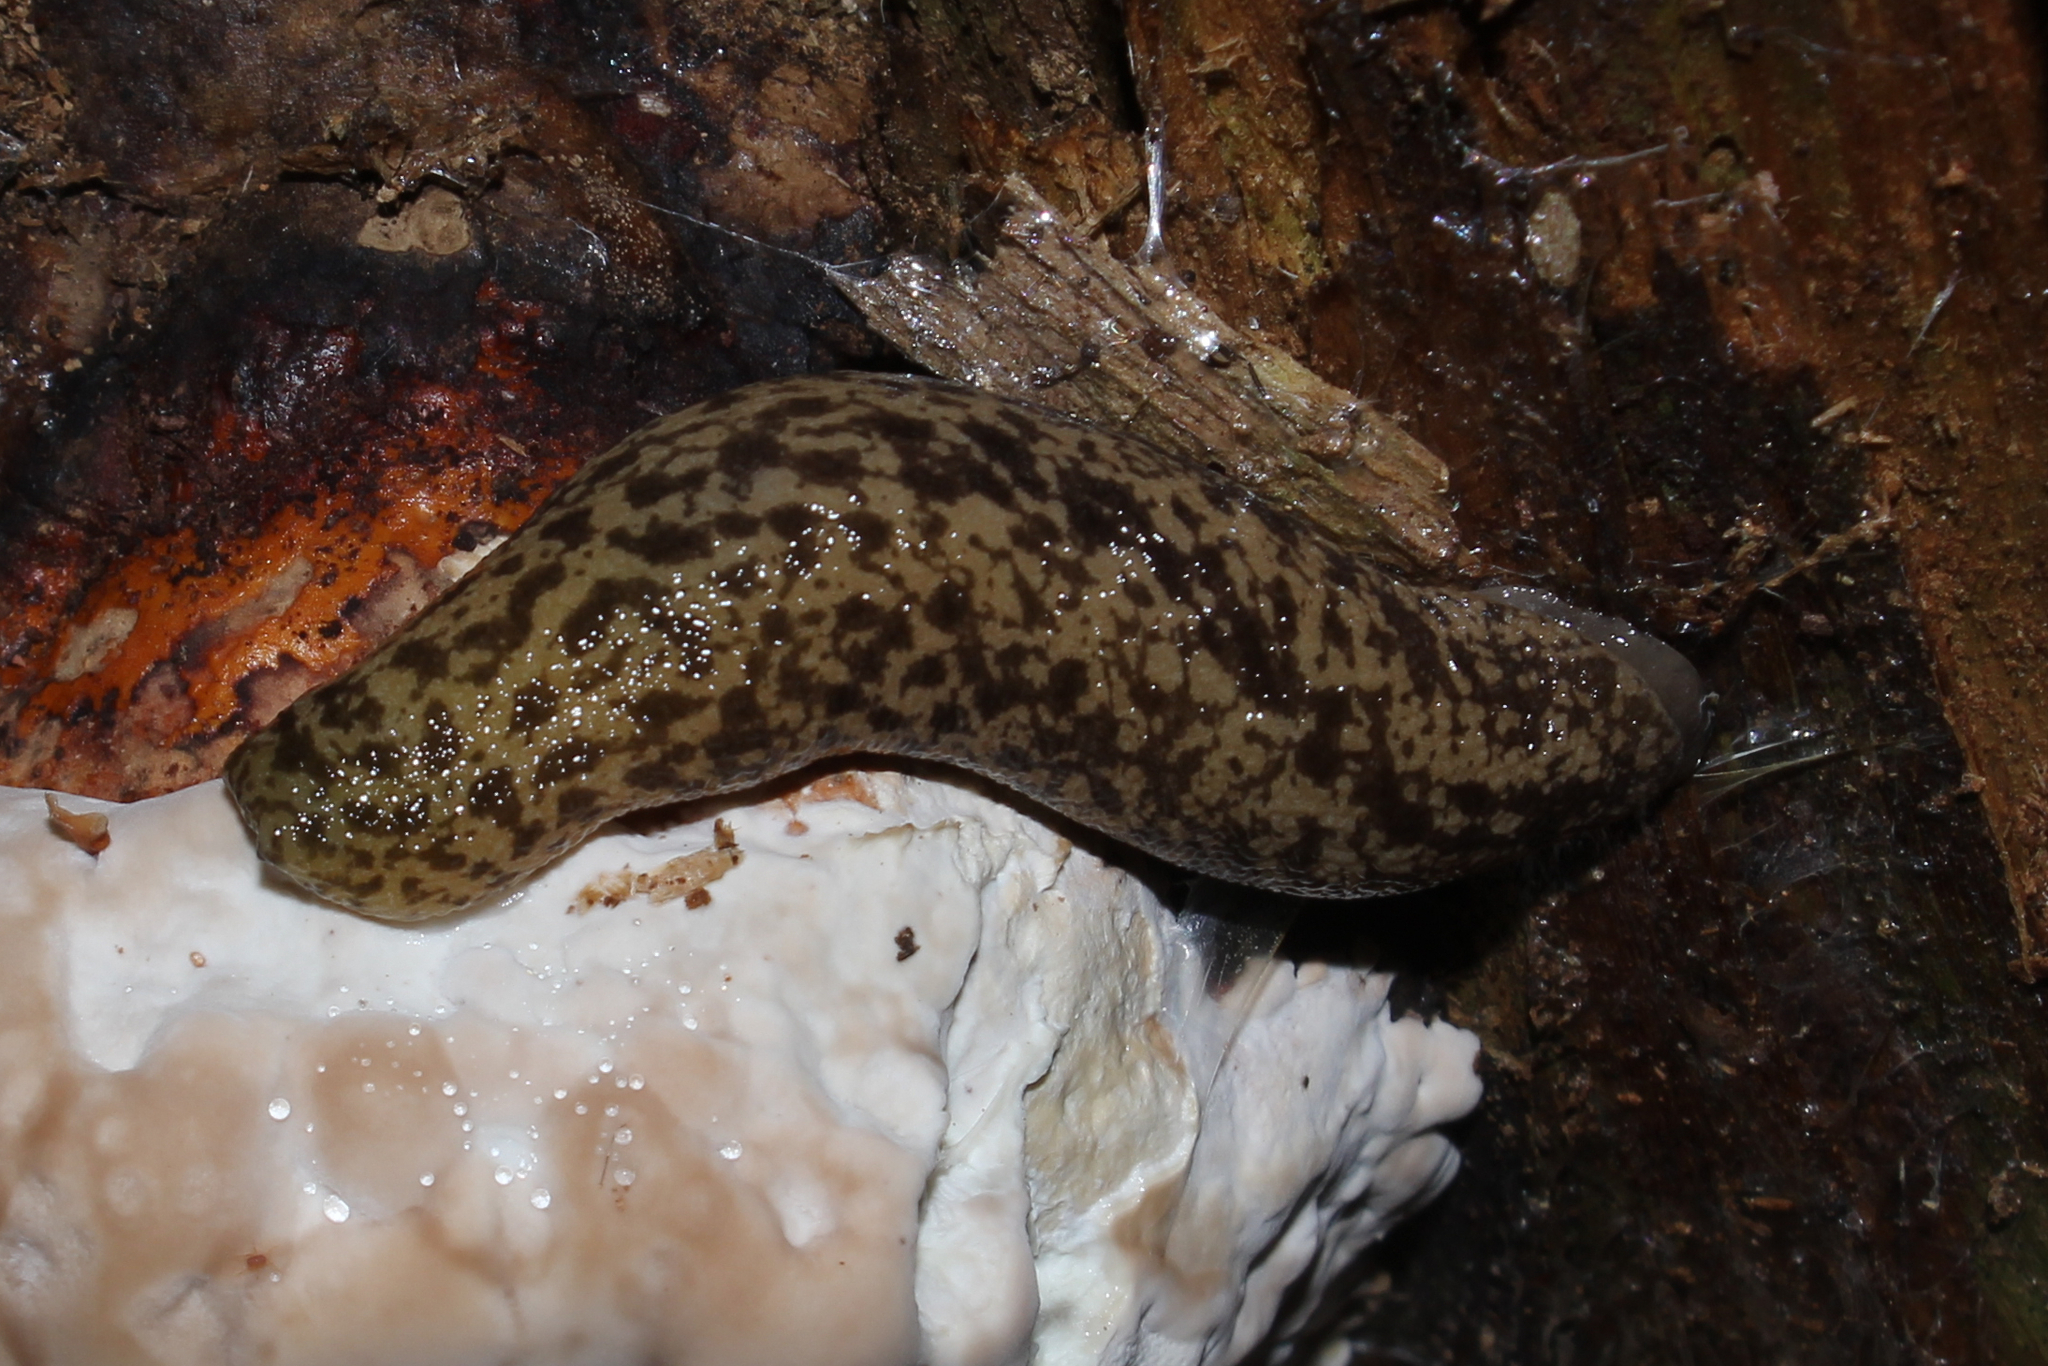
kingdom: Animalia
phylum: Mollusca
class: Gastropoda
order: Stylommatophora
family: Philomycidae
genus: Philomycus
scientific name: Philomycus flexuolaris
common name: Winding mantleslug
